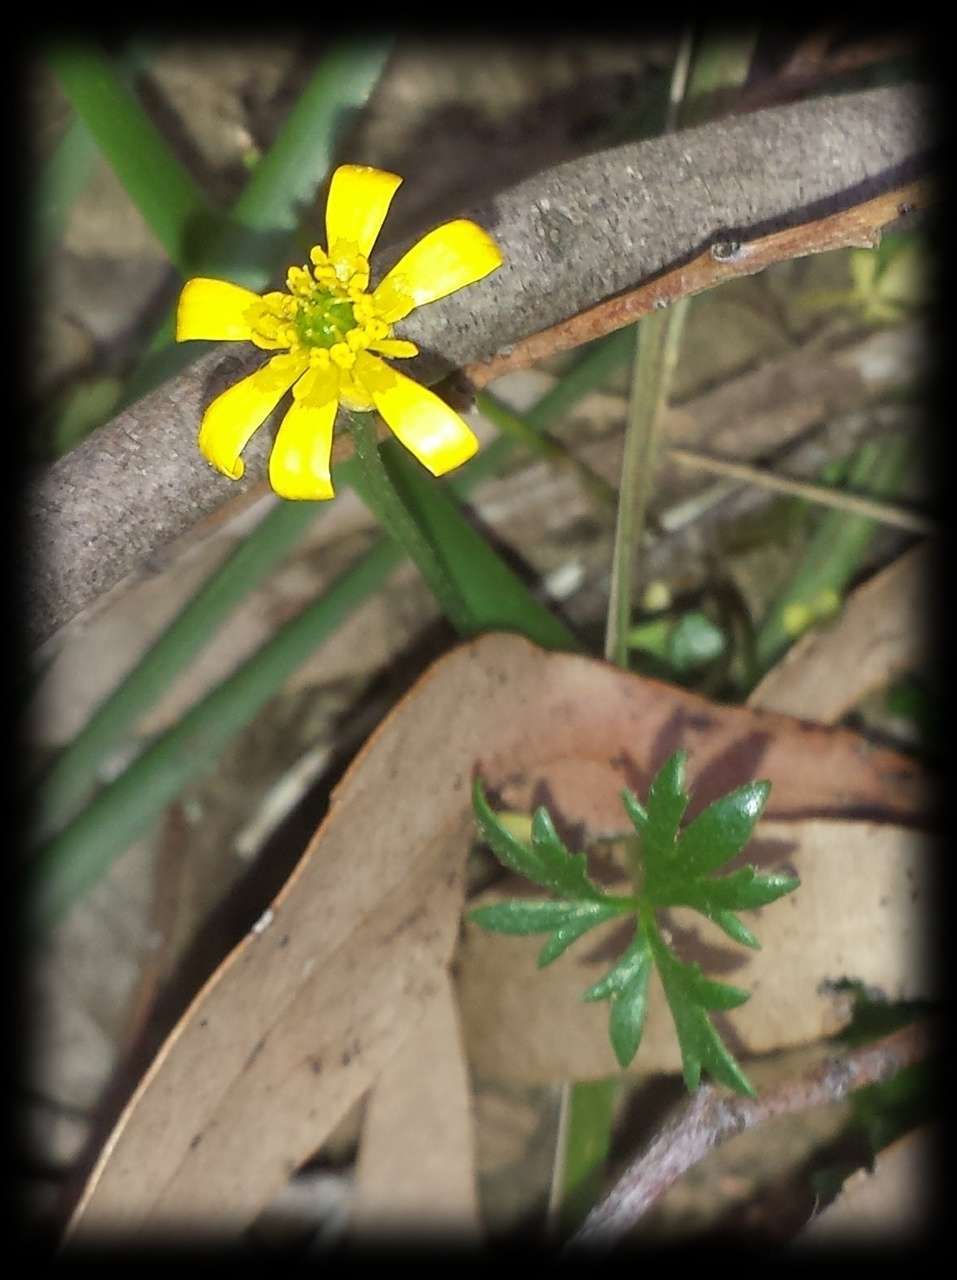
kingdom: Plantae
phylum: Tracheophyta
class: Magnoliopsida
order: Ranunculales
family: Ranunculaceae
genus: Ranunculus
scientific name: Ranunculus glabrifolius
